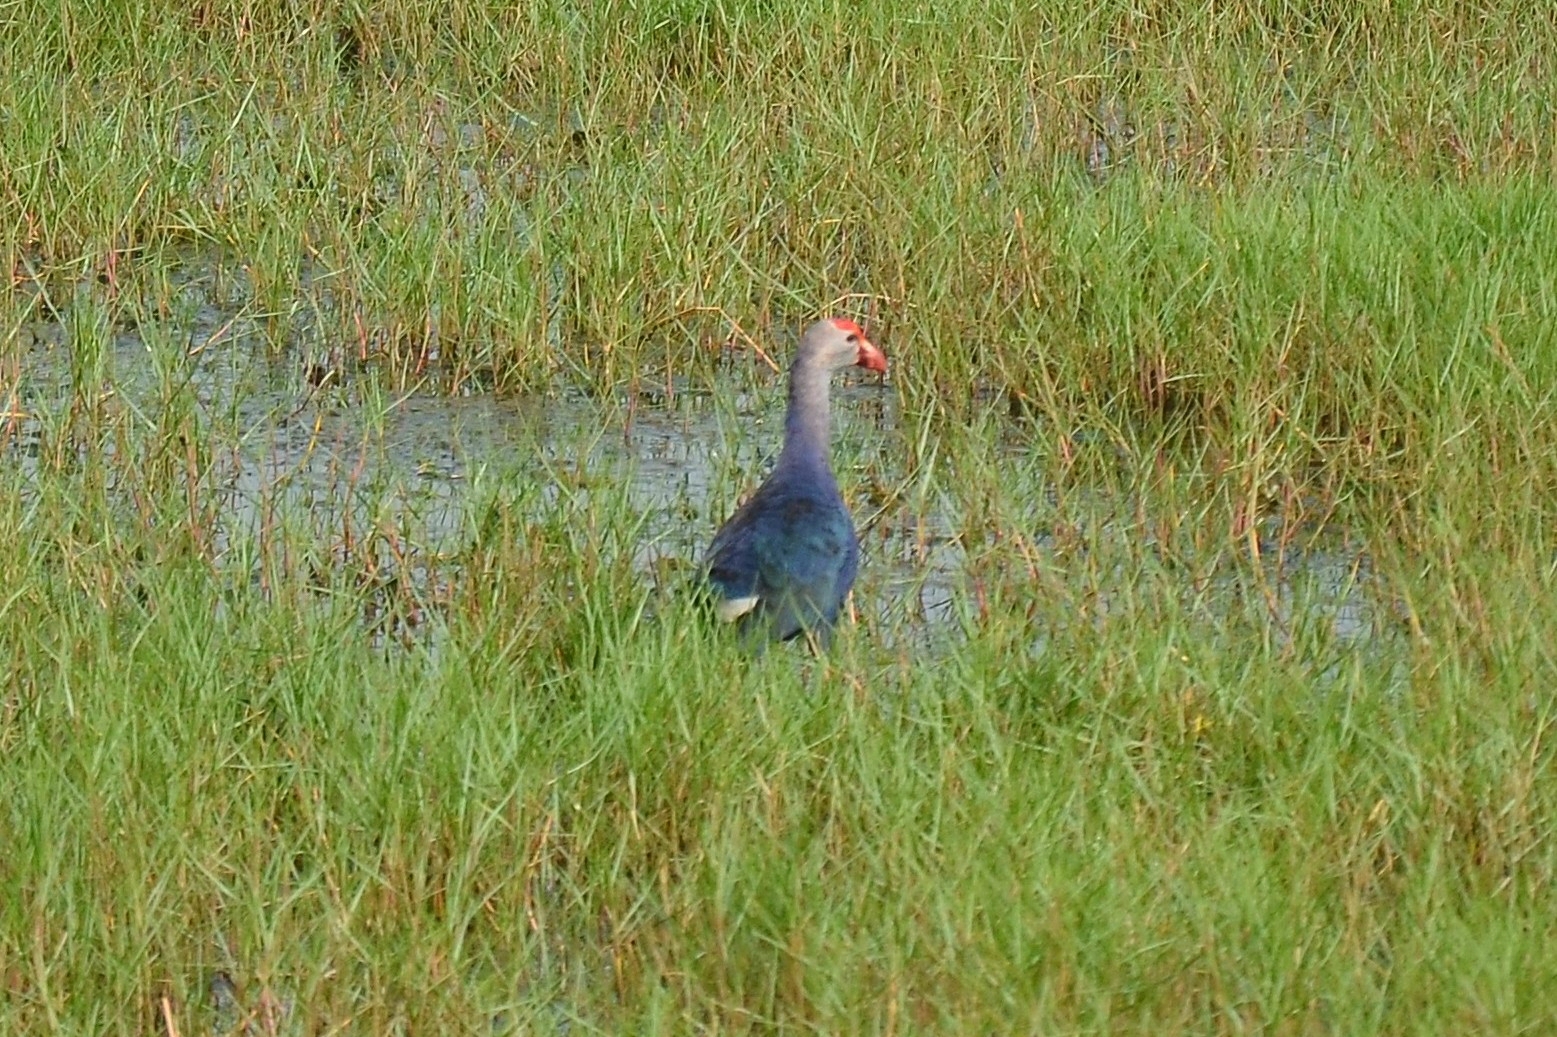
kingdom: Animalia
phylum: Chordata
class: Aves
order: Gruiformes
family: Rallidae
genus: Porphyrio
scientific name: Porphyrio porphyrio
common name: Purple swamphen
